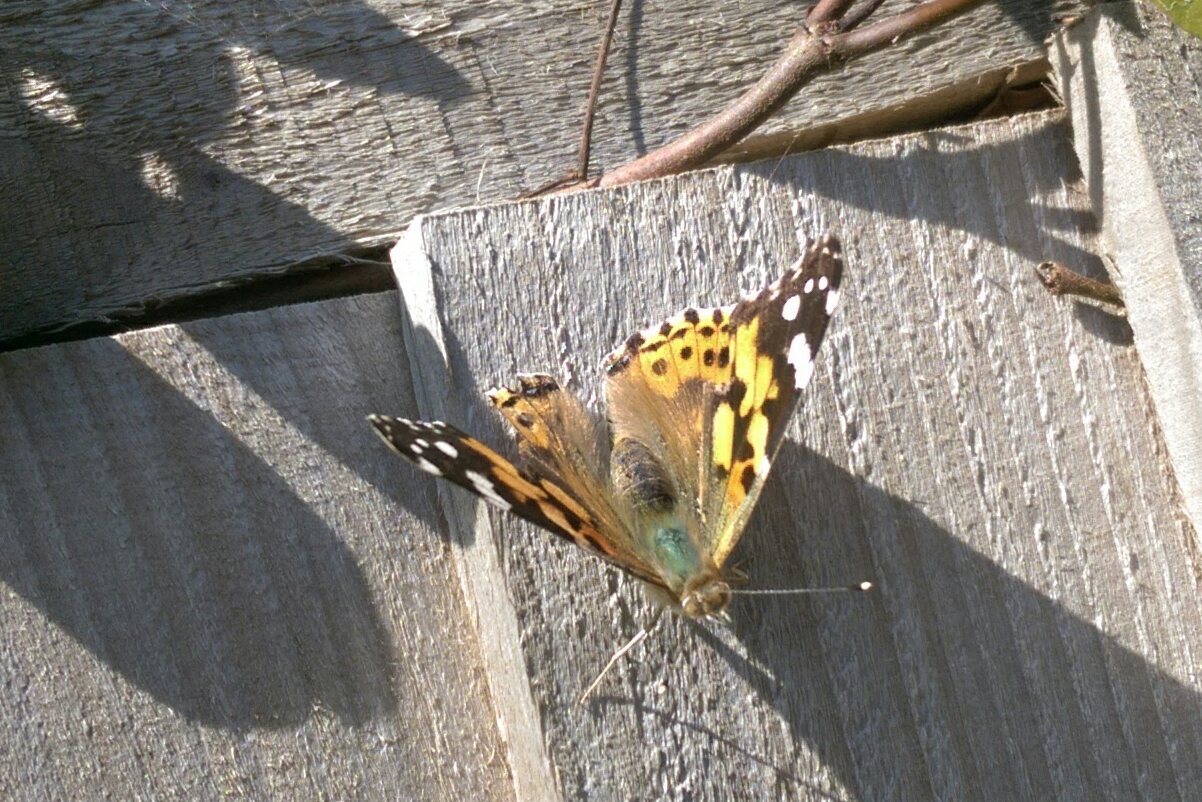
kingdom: Animalia
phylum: Arthropoda
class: Insecta
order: Lepidoptera
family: Nymphalidae
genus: Vanessa
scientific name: Vanessa cardui
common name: Painted lady
